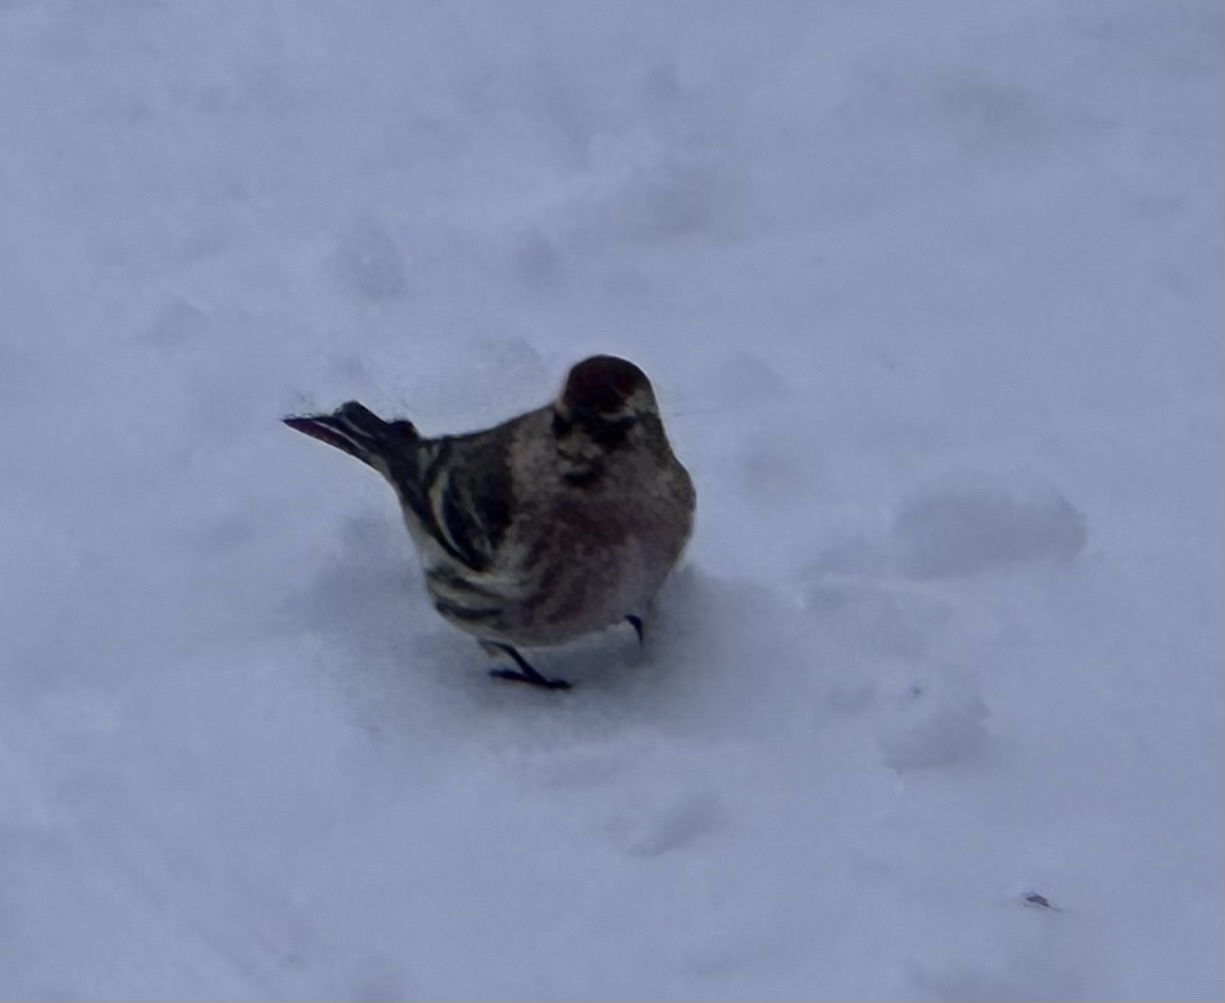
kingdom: Animalia
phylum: Chordata
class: Aves
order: Passeriformes
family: Fringillidae
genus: Acanthis
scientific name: Acanthis flammea
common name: Common redpoll
